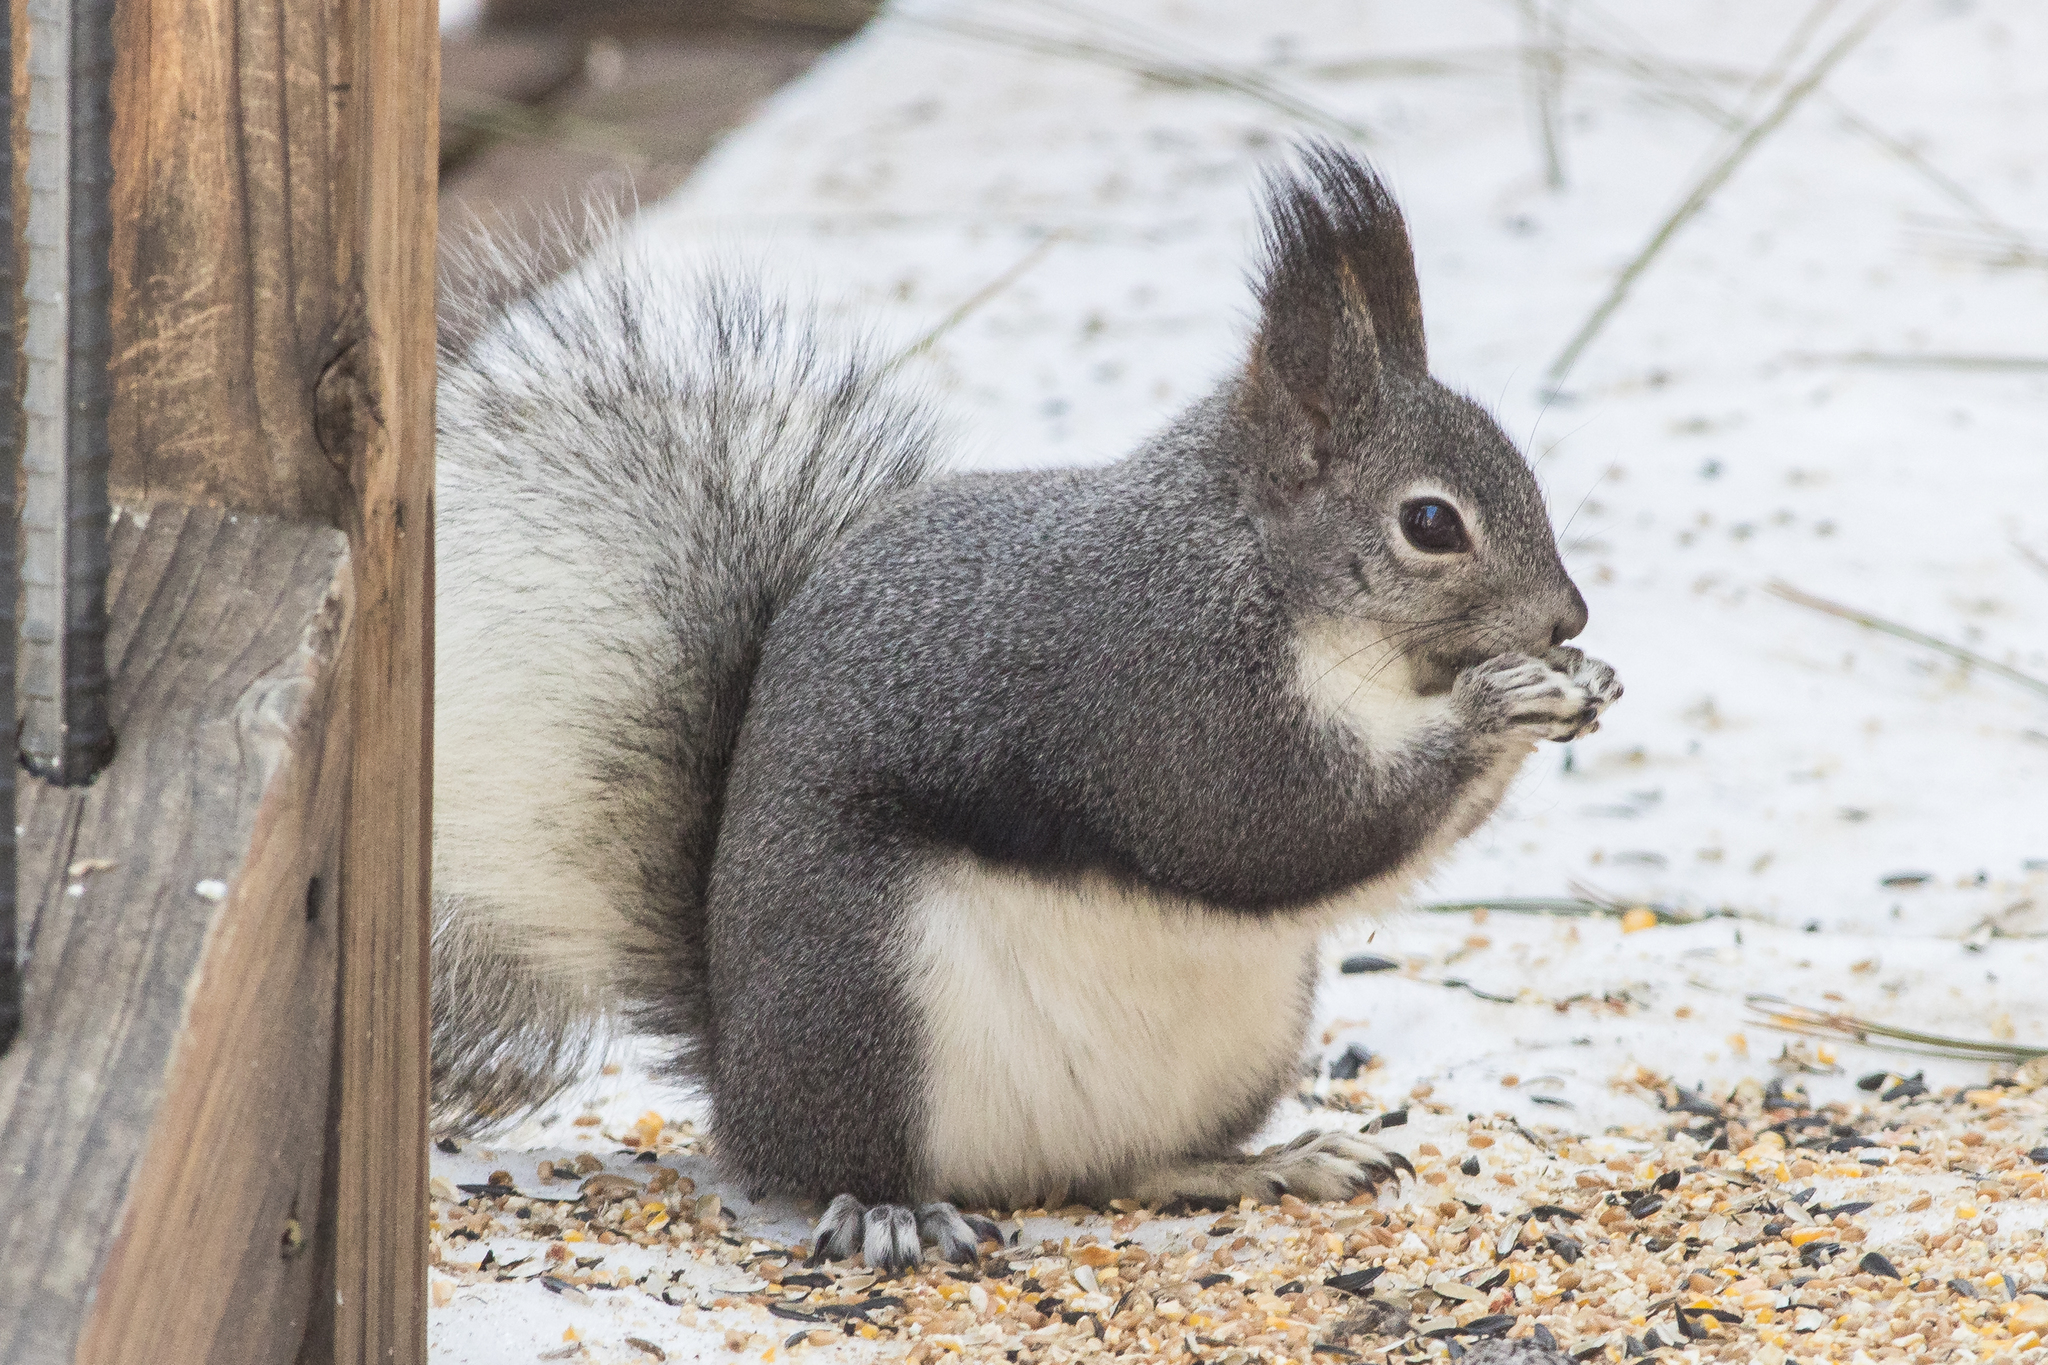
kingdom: Animalia
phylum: Chordata
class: Mammalia
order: Rodentia
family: Sciuridae
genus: Sciurus
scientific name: Sciurus aberti
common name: Abert's squirrel
